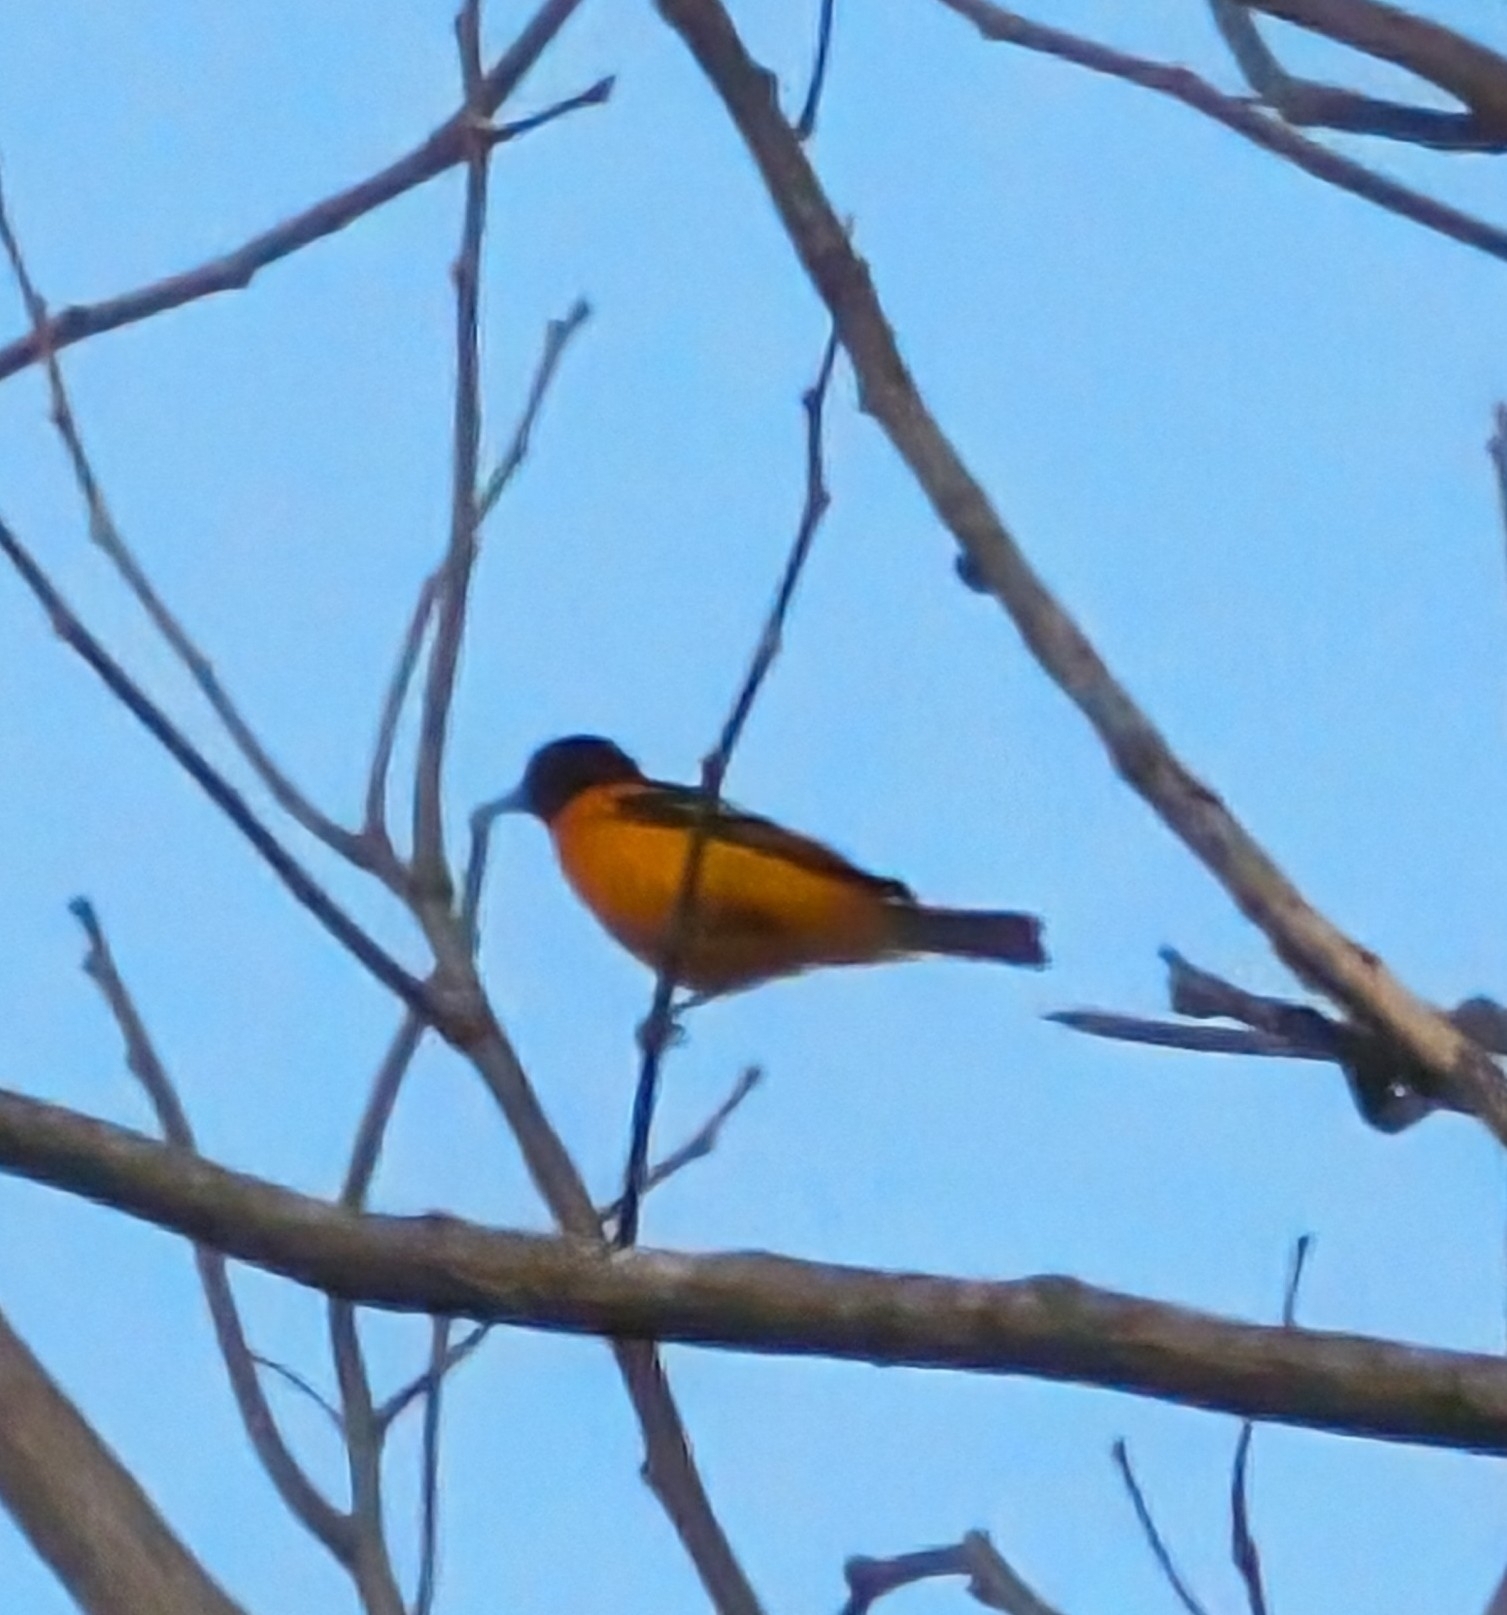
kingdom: Animalia
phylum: Chordata
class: Aves
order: Passeriformes
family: Icteridae
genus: Icterus
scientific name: Icterus galbula
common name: Baltimore oriole
